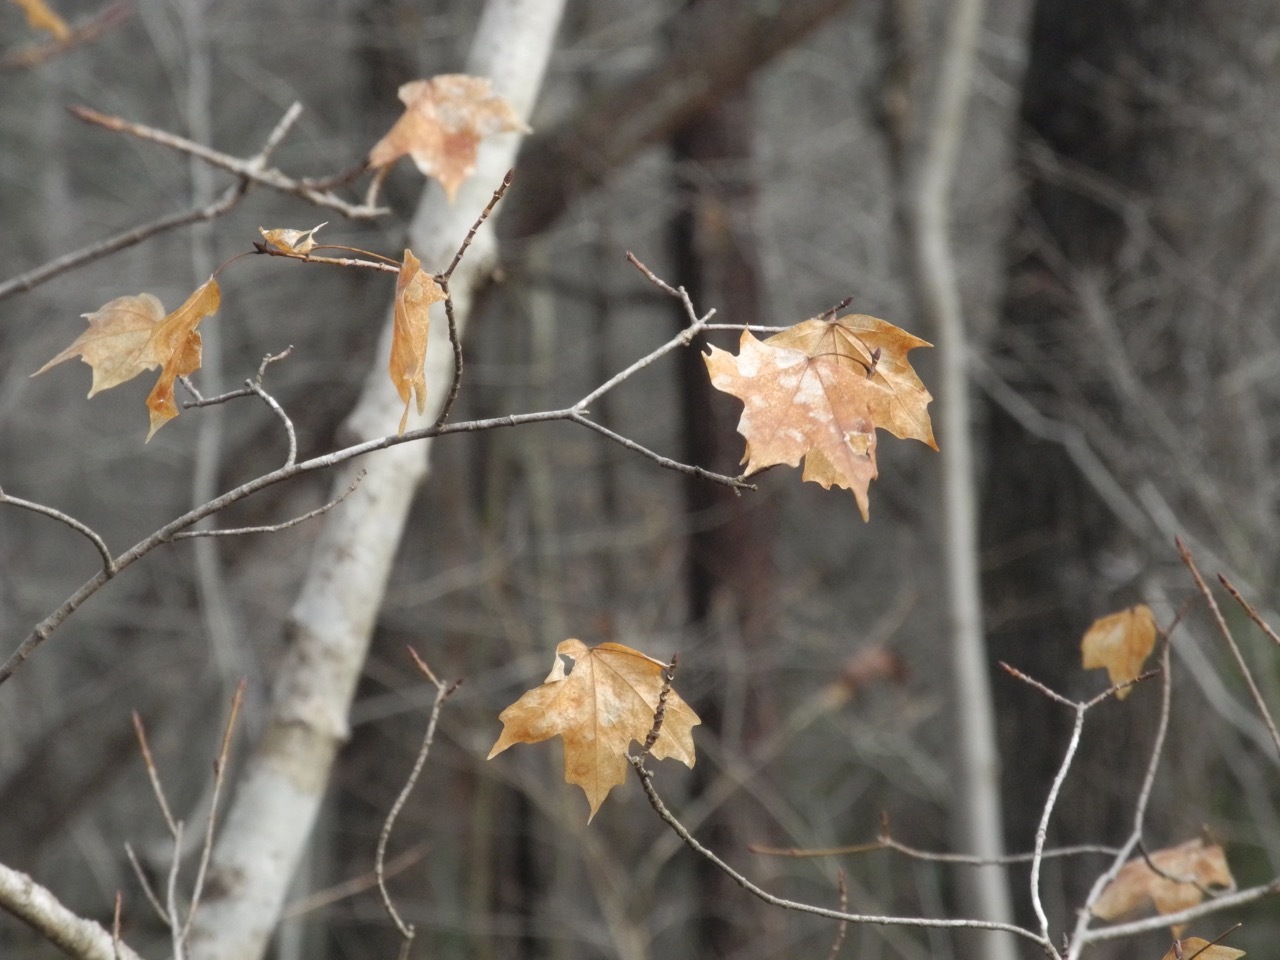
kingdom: Plantae
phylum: Tracheophyta
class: Magnoliopsida
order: Sapindales
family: Sapindaceae
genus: Acer
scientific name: Acer floridanum
